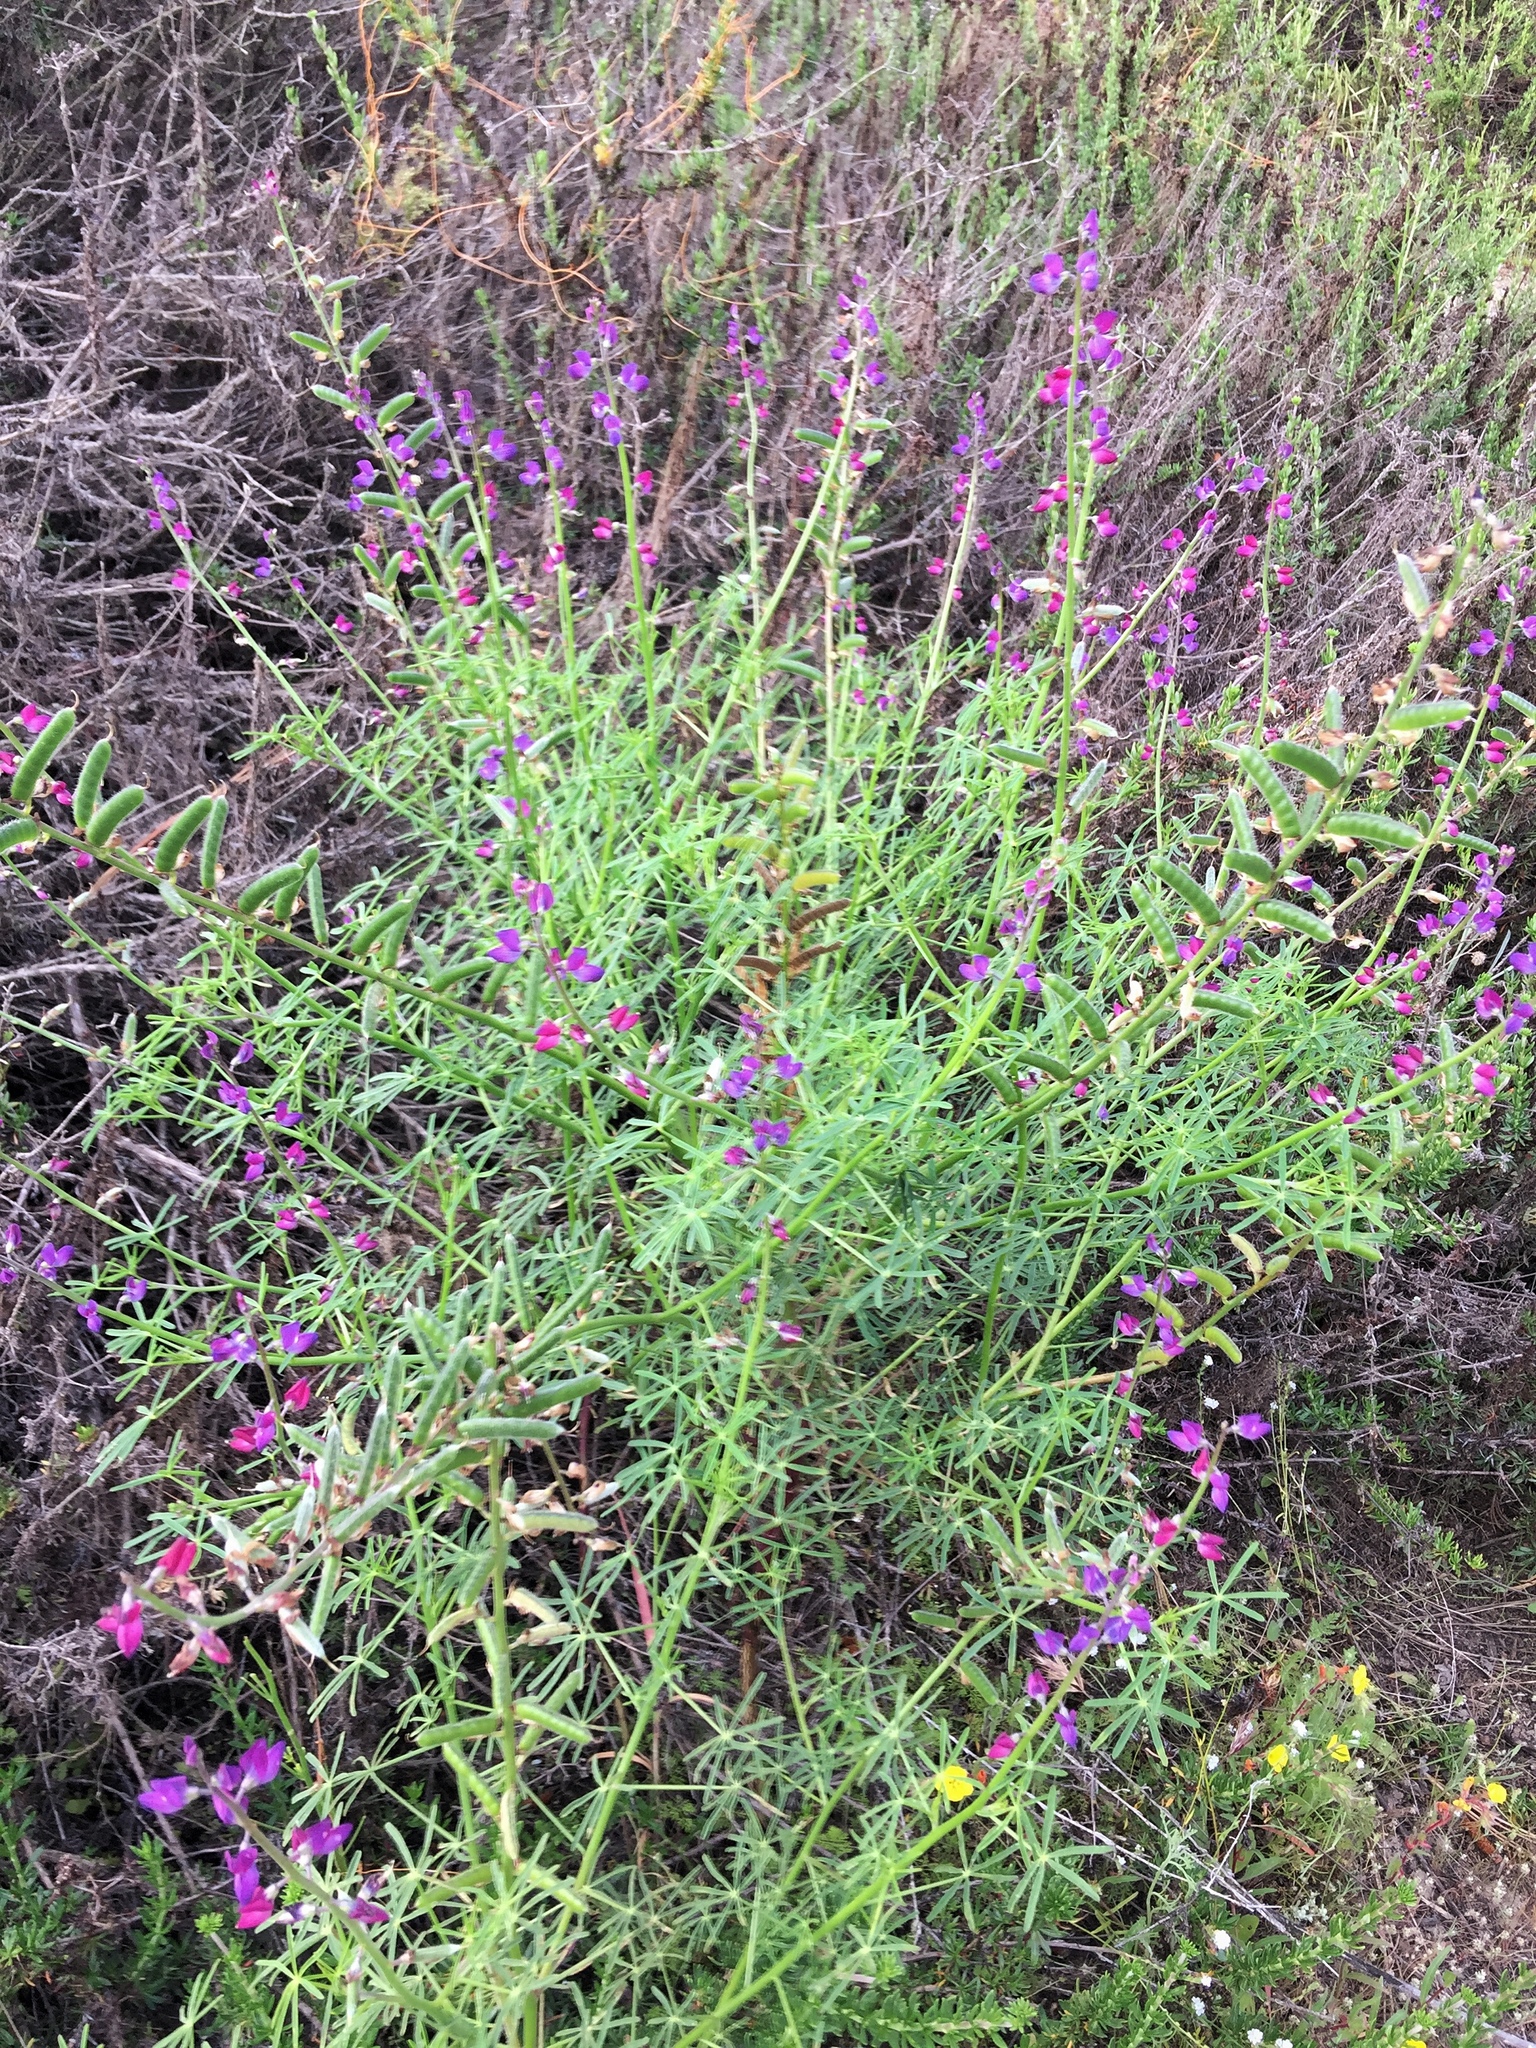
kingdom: Plantae
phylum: Tracheophyta
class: Magnoliopsida
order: Fabales
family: Fabaceae
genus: Lupinus
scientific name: Lupinus truncatus
